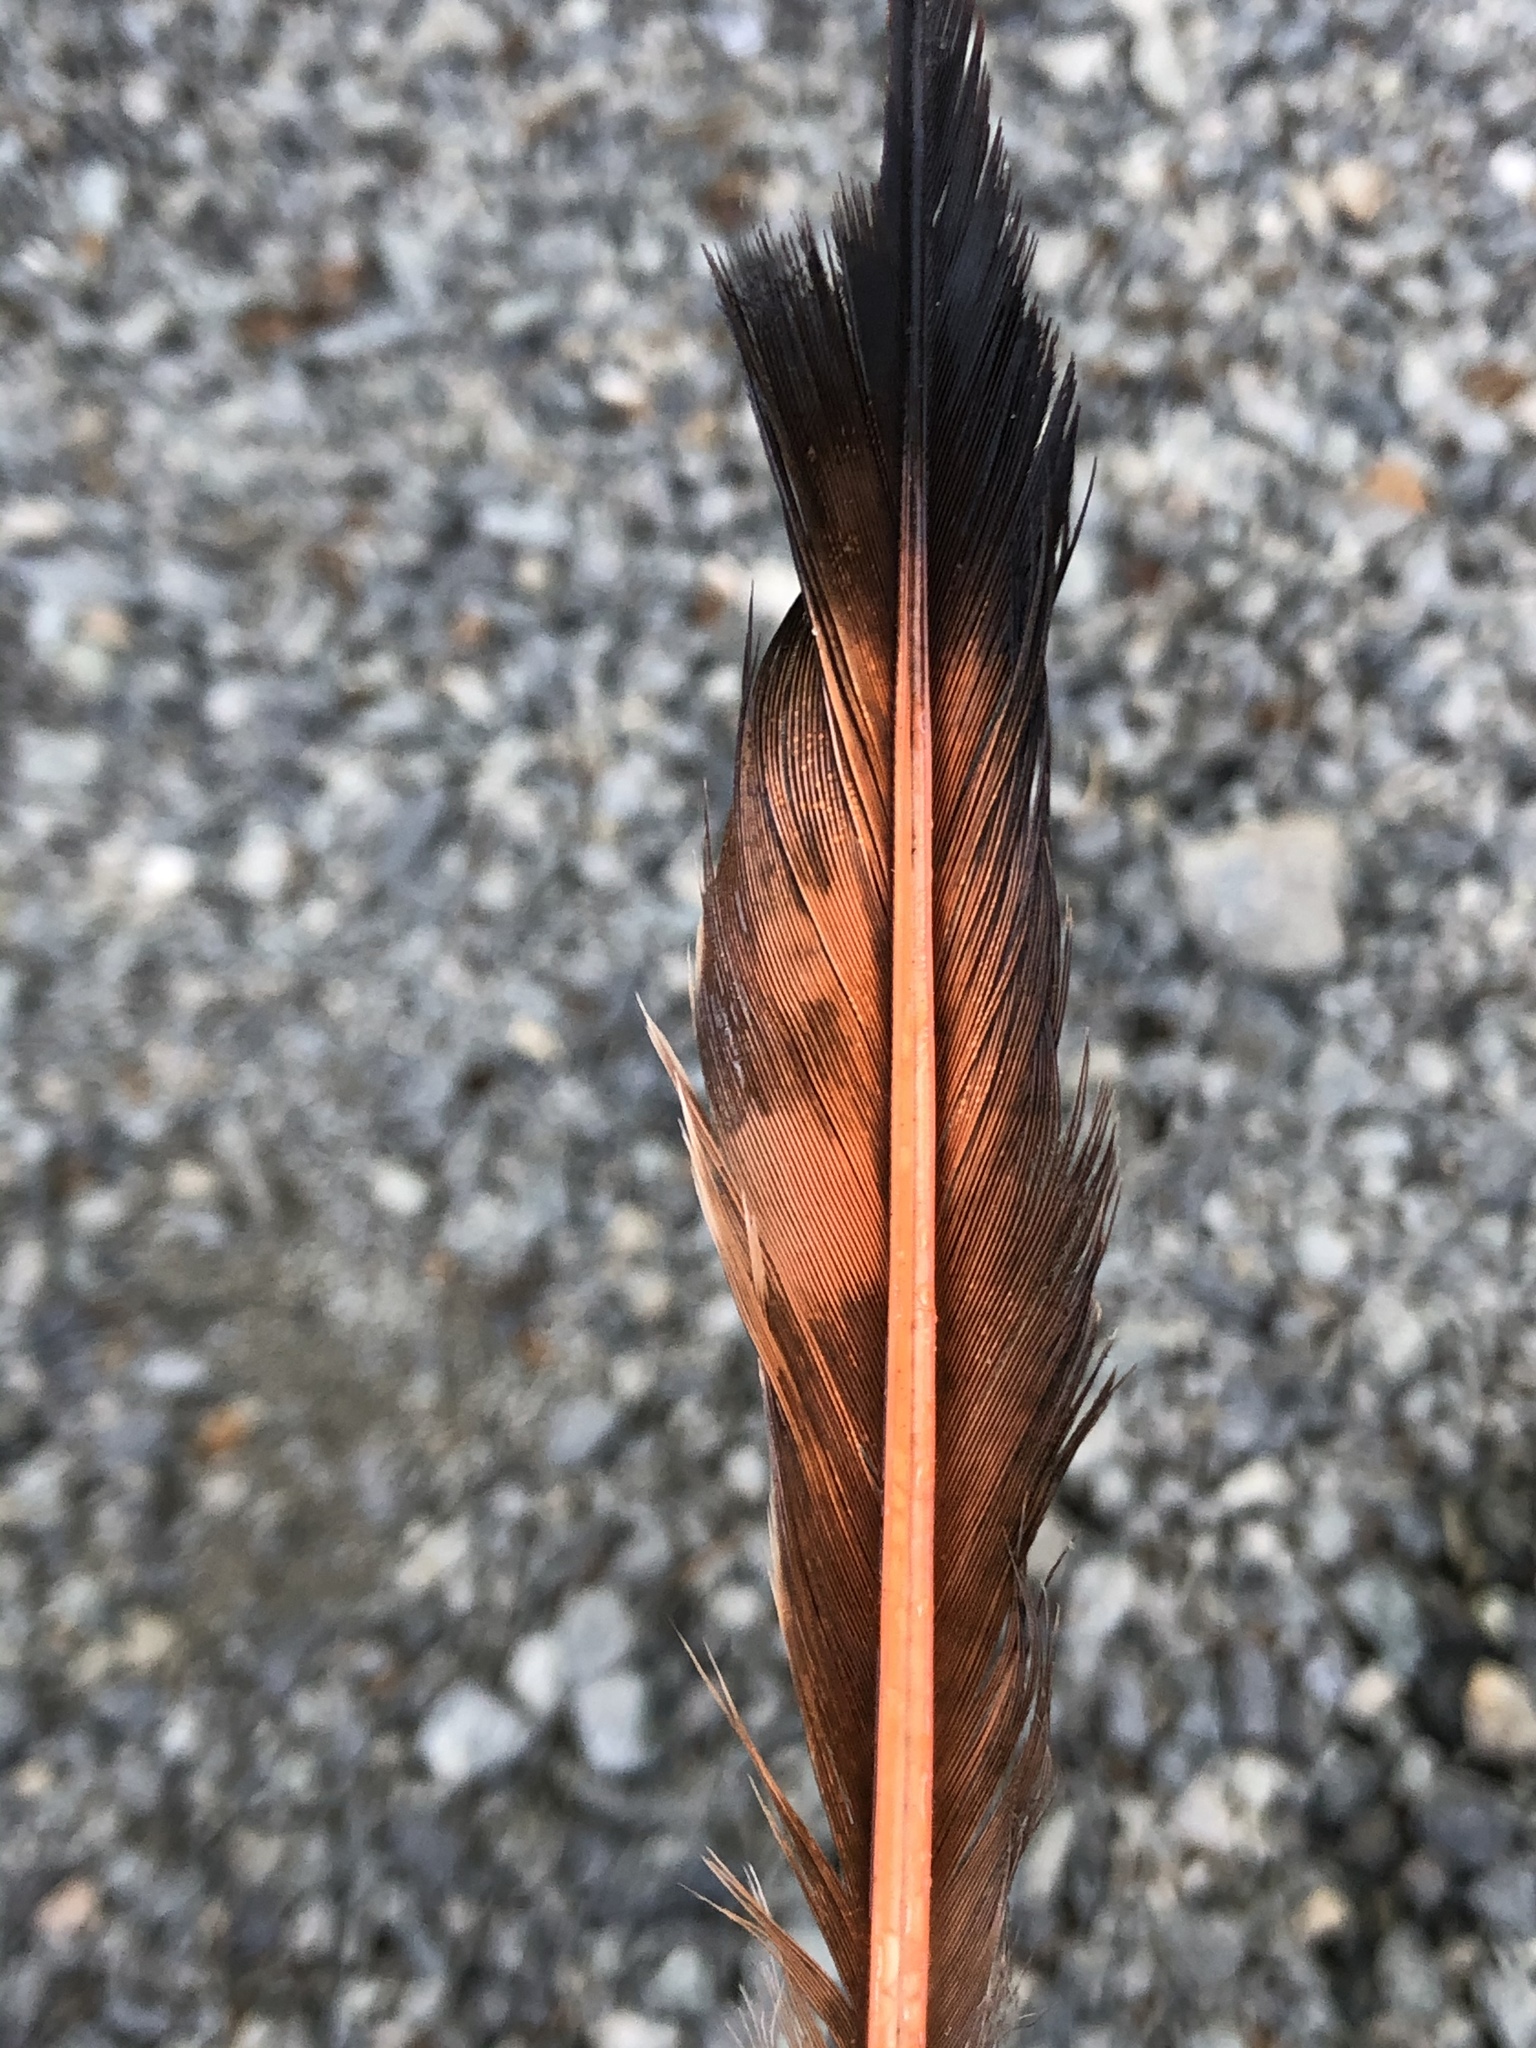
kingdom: Animalia
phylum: Chordata
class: Aves
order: Piciformes
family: Picidae
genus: Colaptes
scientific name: Colaptes auratus
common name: Northern flicker
